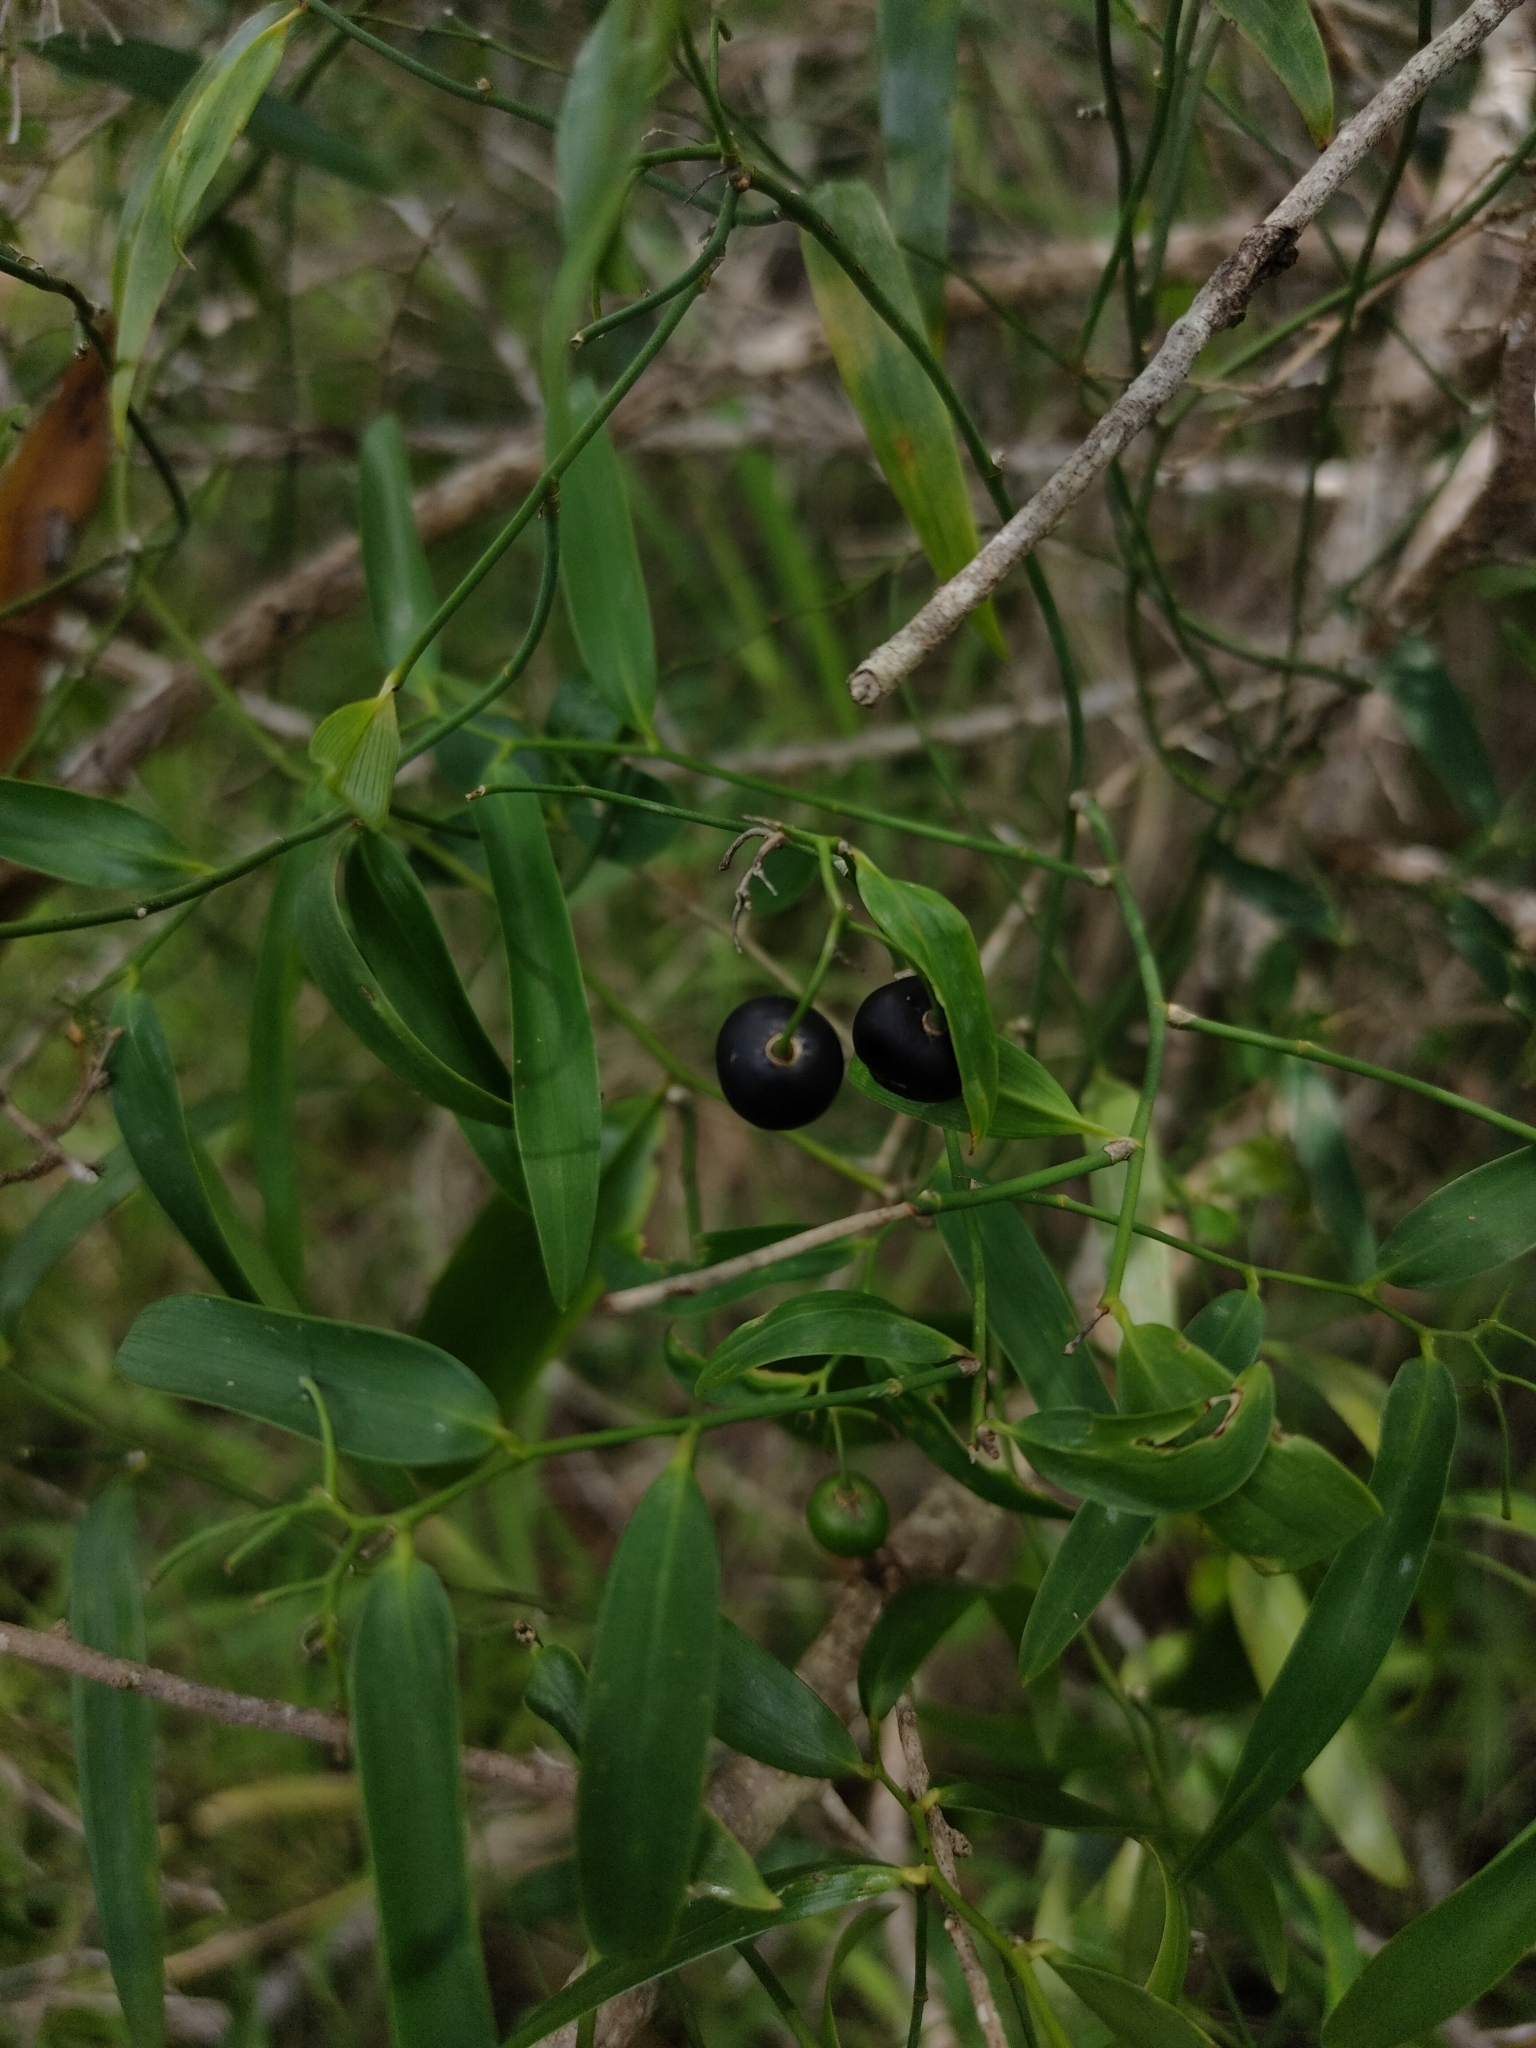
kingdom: Plantae
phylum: Tracheophyta
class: Liliopsida
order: Asparagales
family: Asphodelaceae
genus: Geitonoplesium
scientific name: Geitonoplesium cymosum
